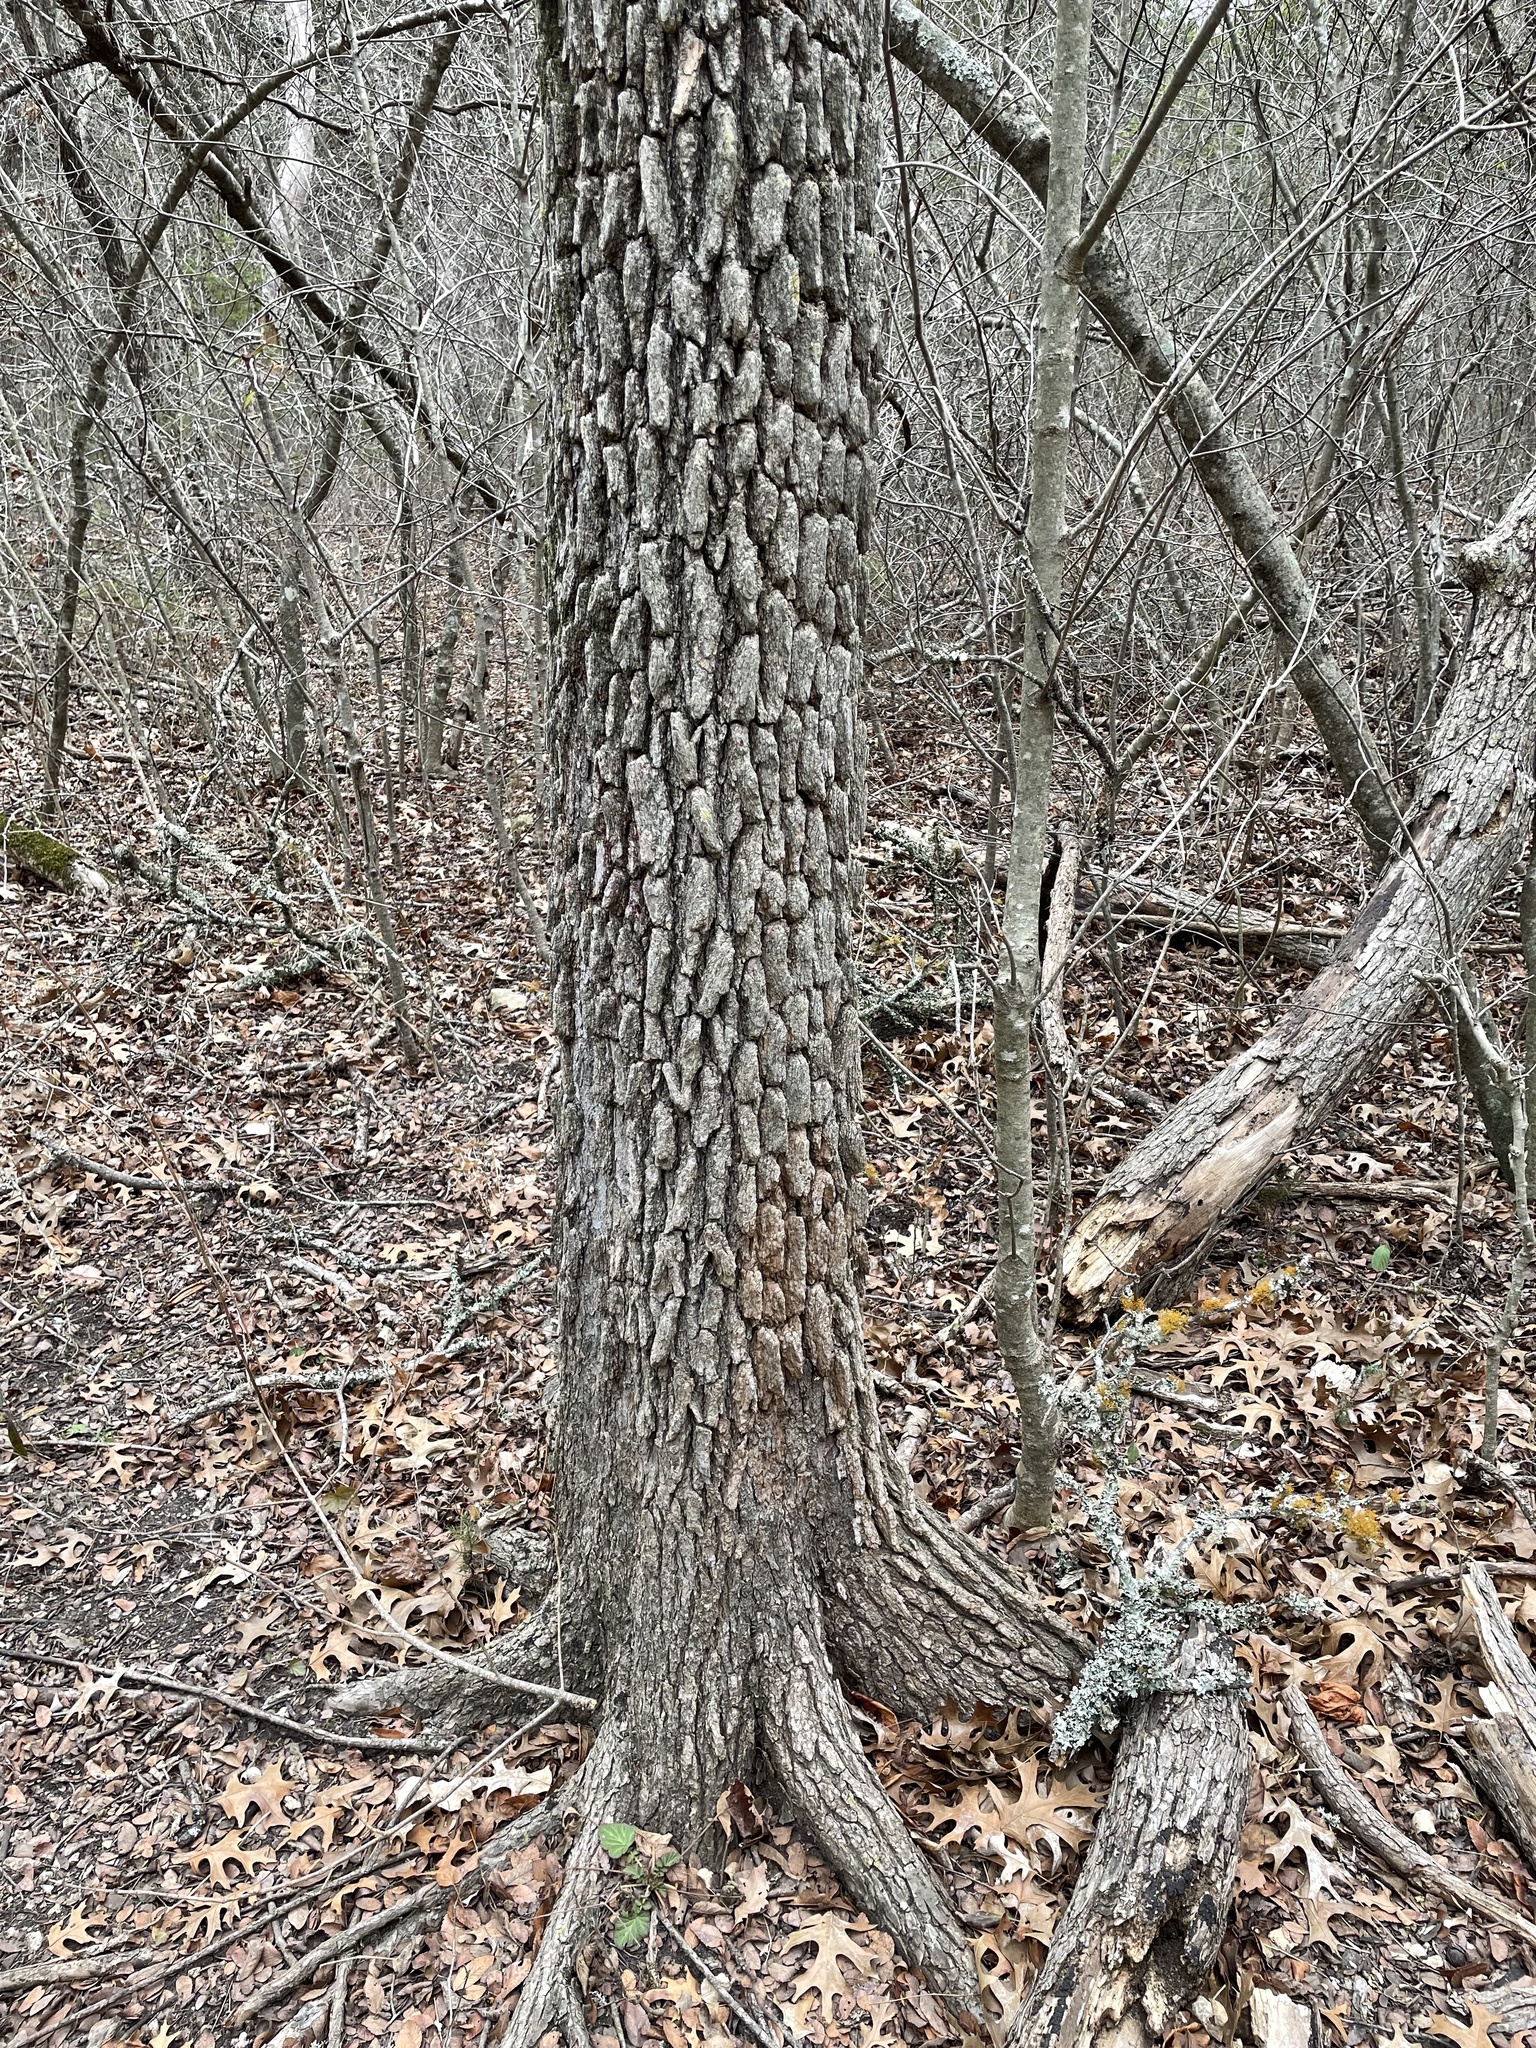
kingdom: Plantae
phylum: Tracheophyta
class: Magnoliopsida
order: Rosales
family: Ulmaceae
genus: Ulmus
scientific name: Ulmus crassifolia
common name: Basket elm
